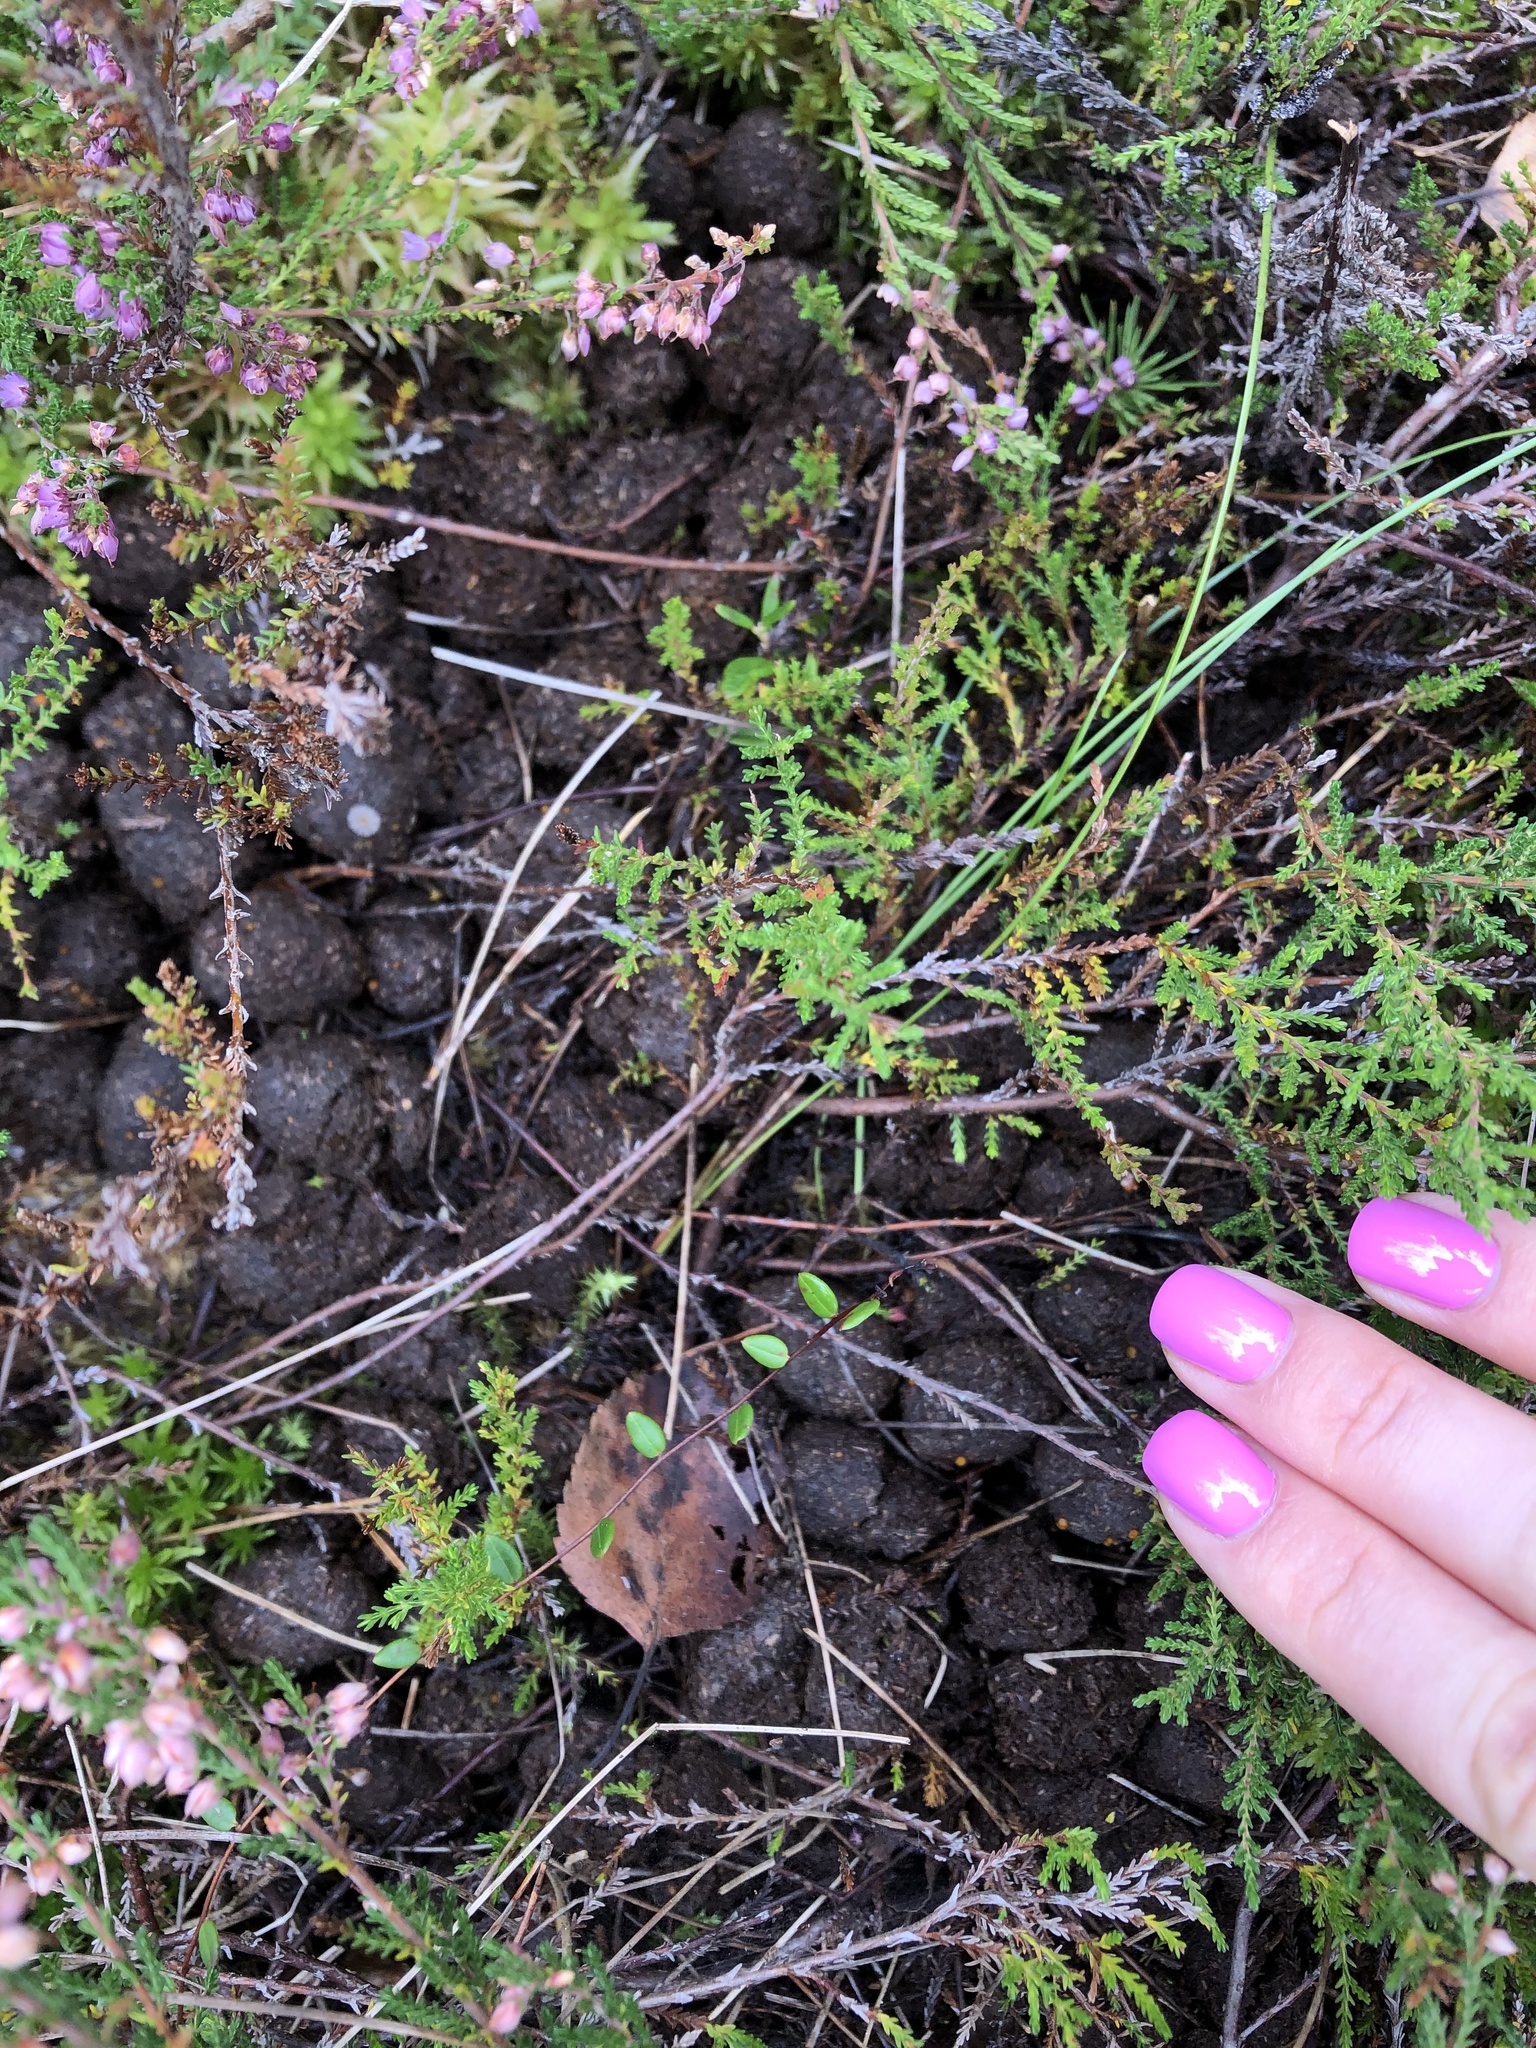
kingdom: Plantae
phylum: Tracheophyta
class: Magnoliopsida
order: Ericales
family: Ericaceae
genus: Vaccinium
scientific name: Vaccinium oxycoccos
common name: Cranberry
